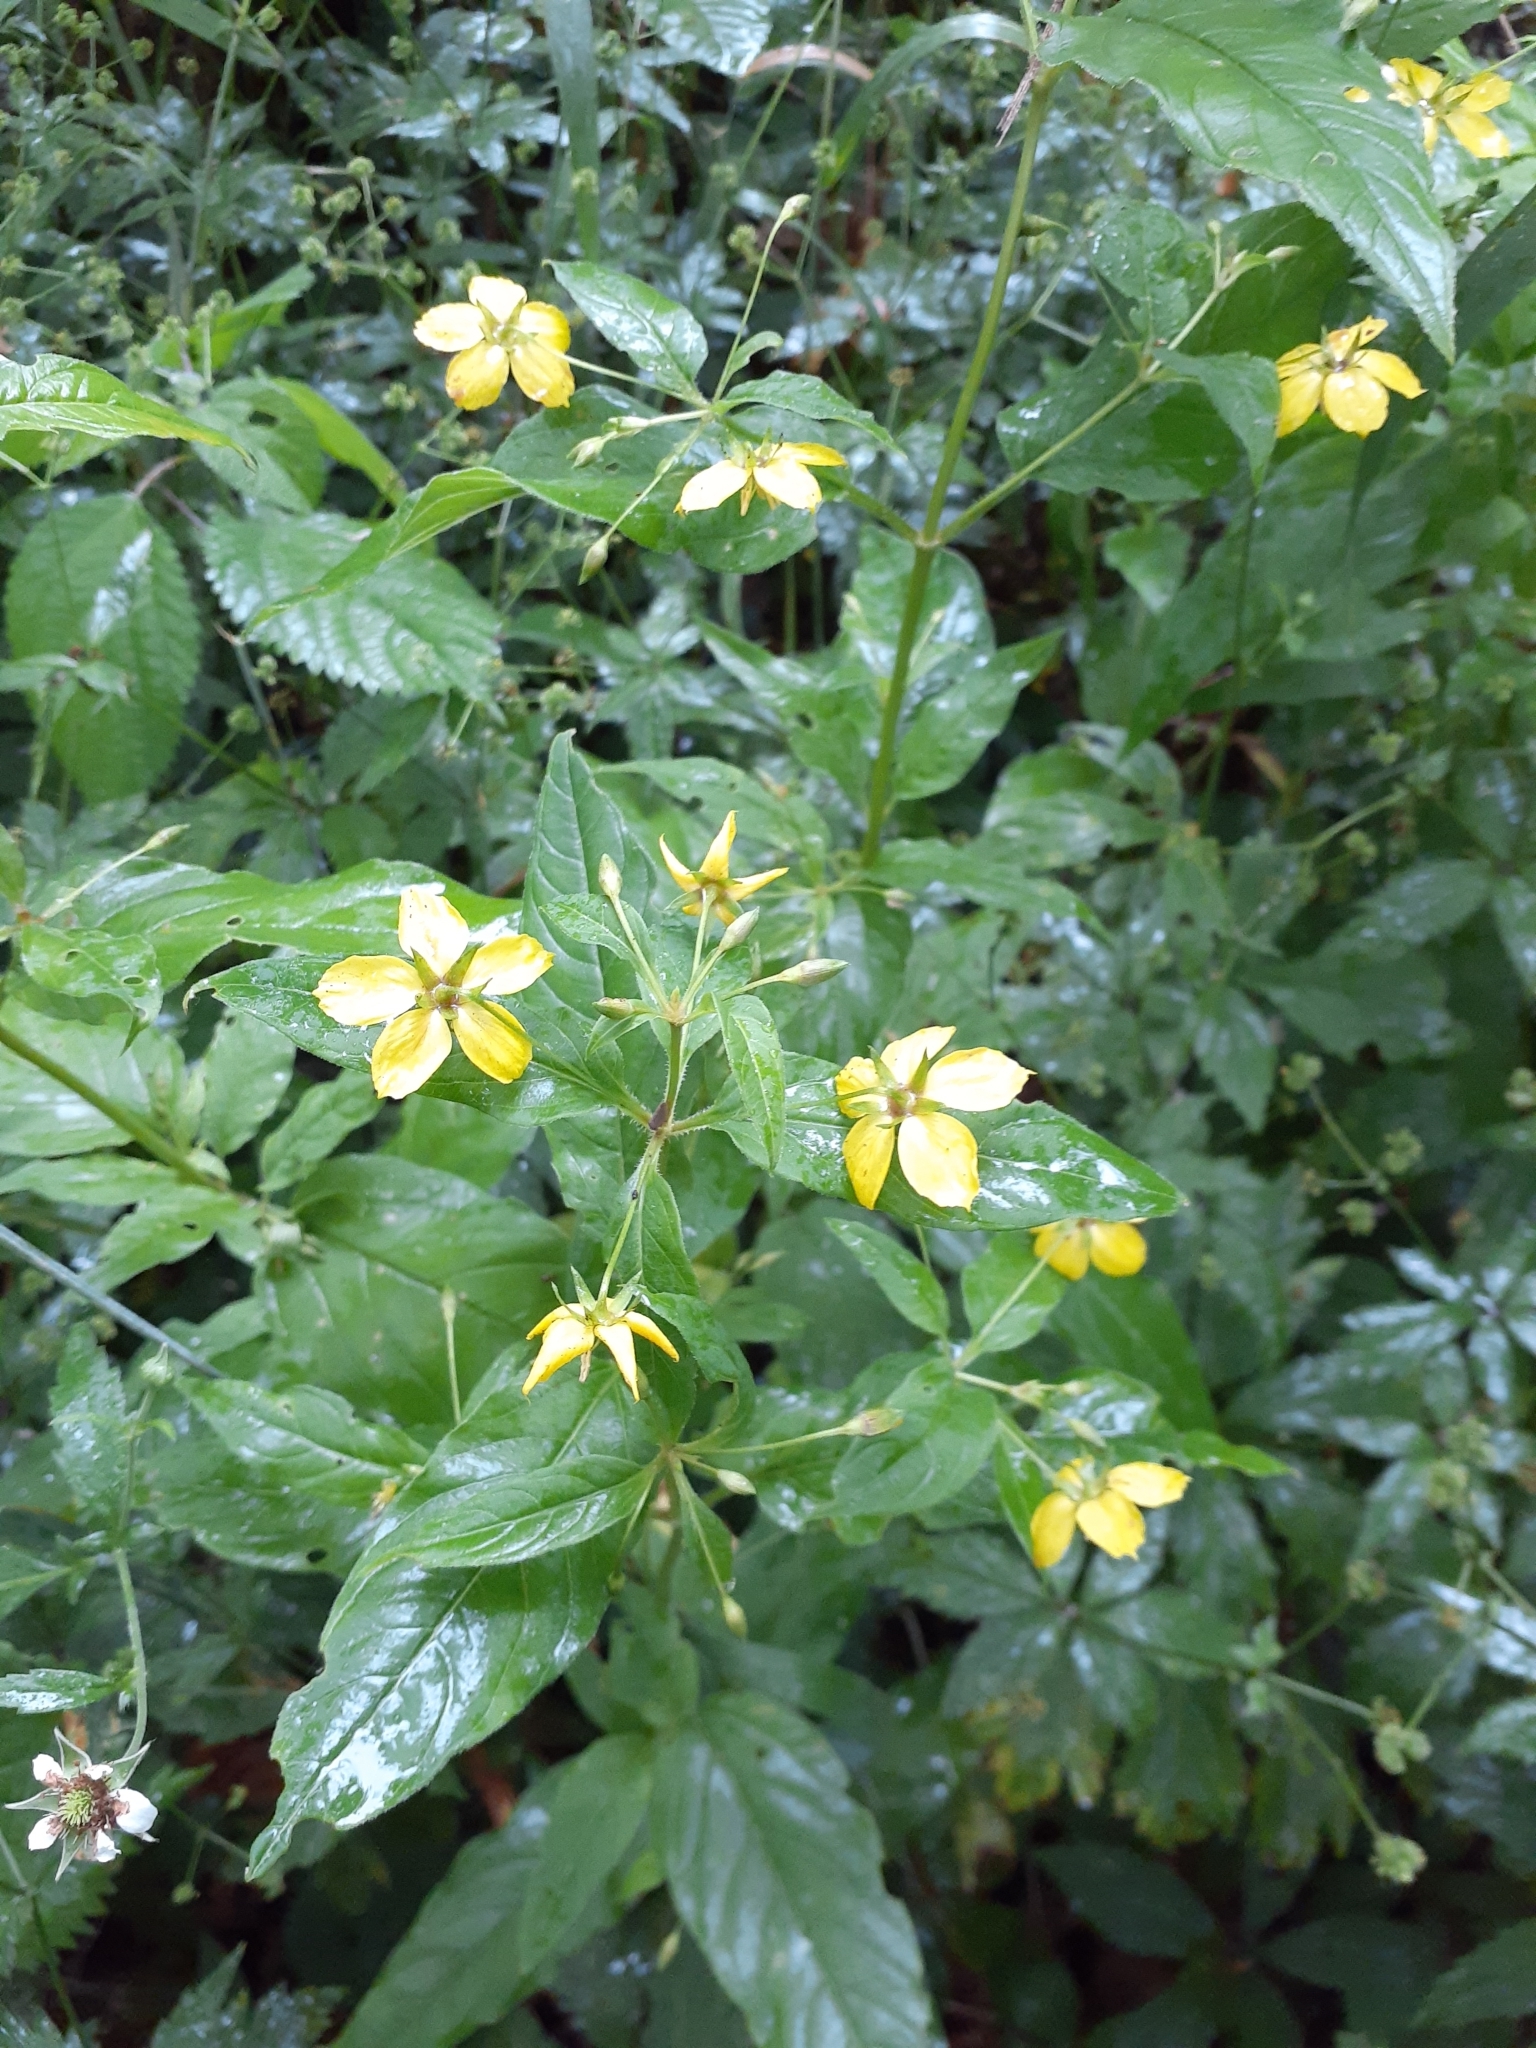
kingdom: Plantae
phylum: Tracheophyta
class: Magnoliopsida
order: Ericales
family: Primulaceae
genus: Lysimachia
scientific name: Lysimachia ciliata
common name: Fringed loosestrife
